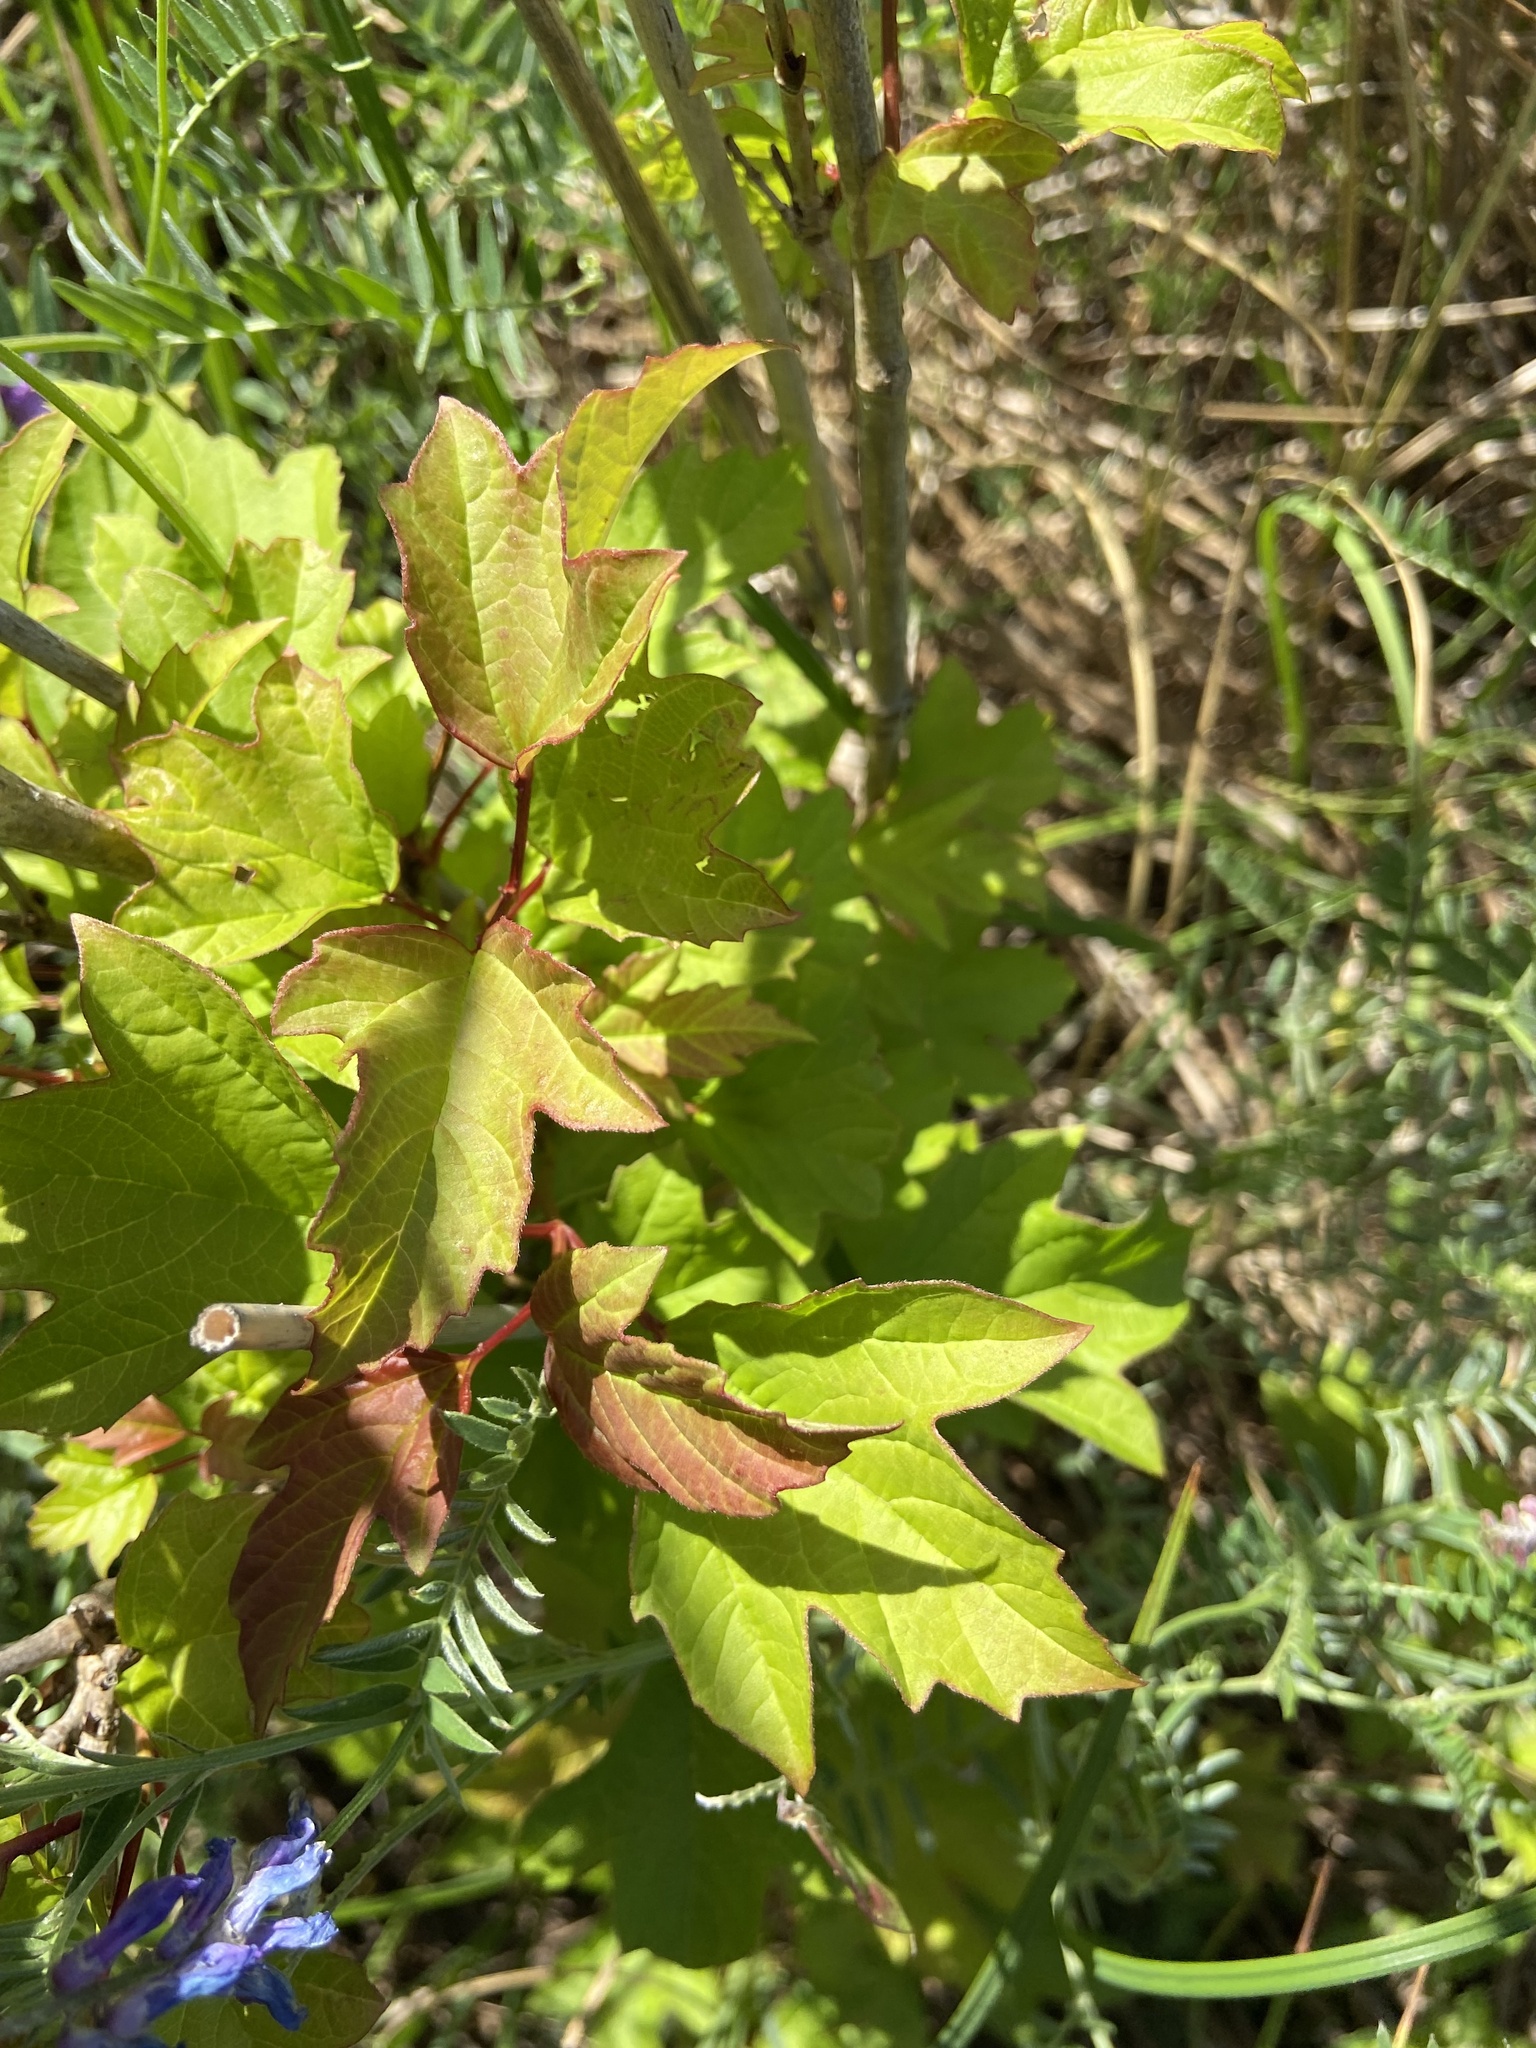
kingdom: Plantae
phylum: Tracheophyta
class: Magnoliopsida
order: Dipsacales
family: Viburnaceae
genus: Viburnum
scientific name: Viburnum opulus
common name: Guelder-rose
